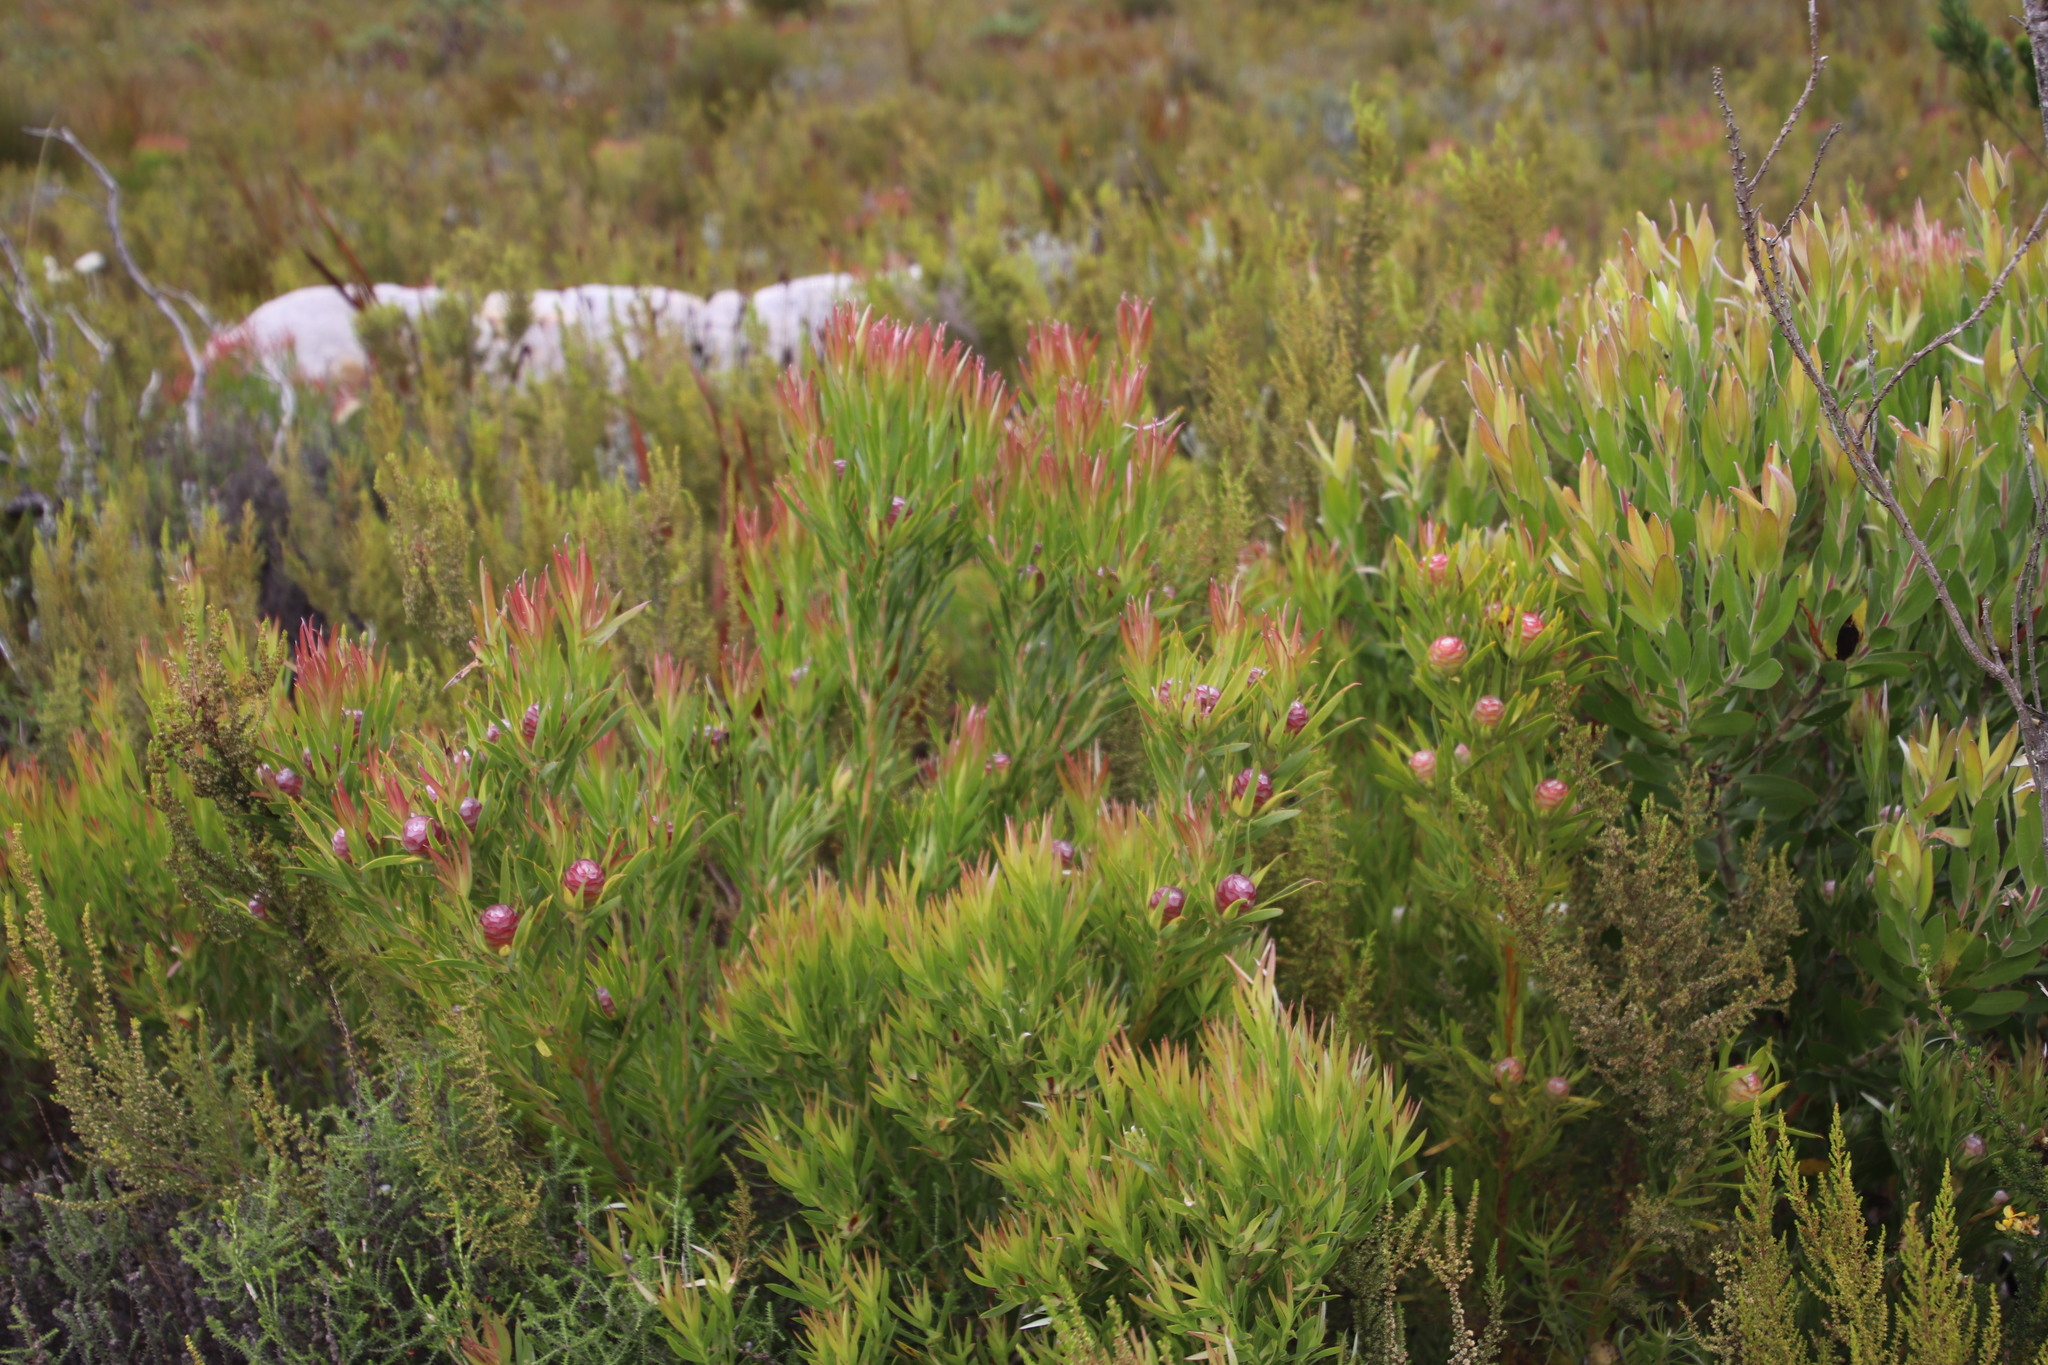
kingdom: Plantae
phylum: Tracheophyta
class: Magnoliopsida
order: Proteales
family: Proteaceae
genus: Leucadendron
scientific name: Leucadendron xanthoconus
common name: Sickle-leaf conebush
